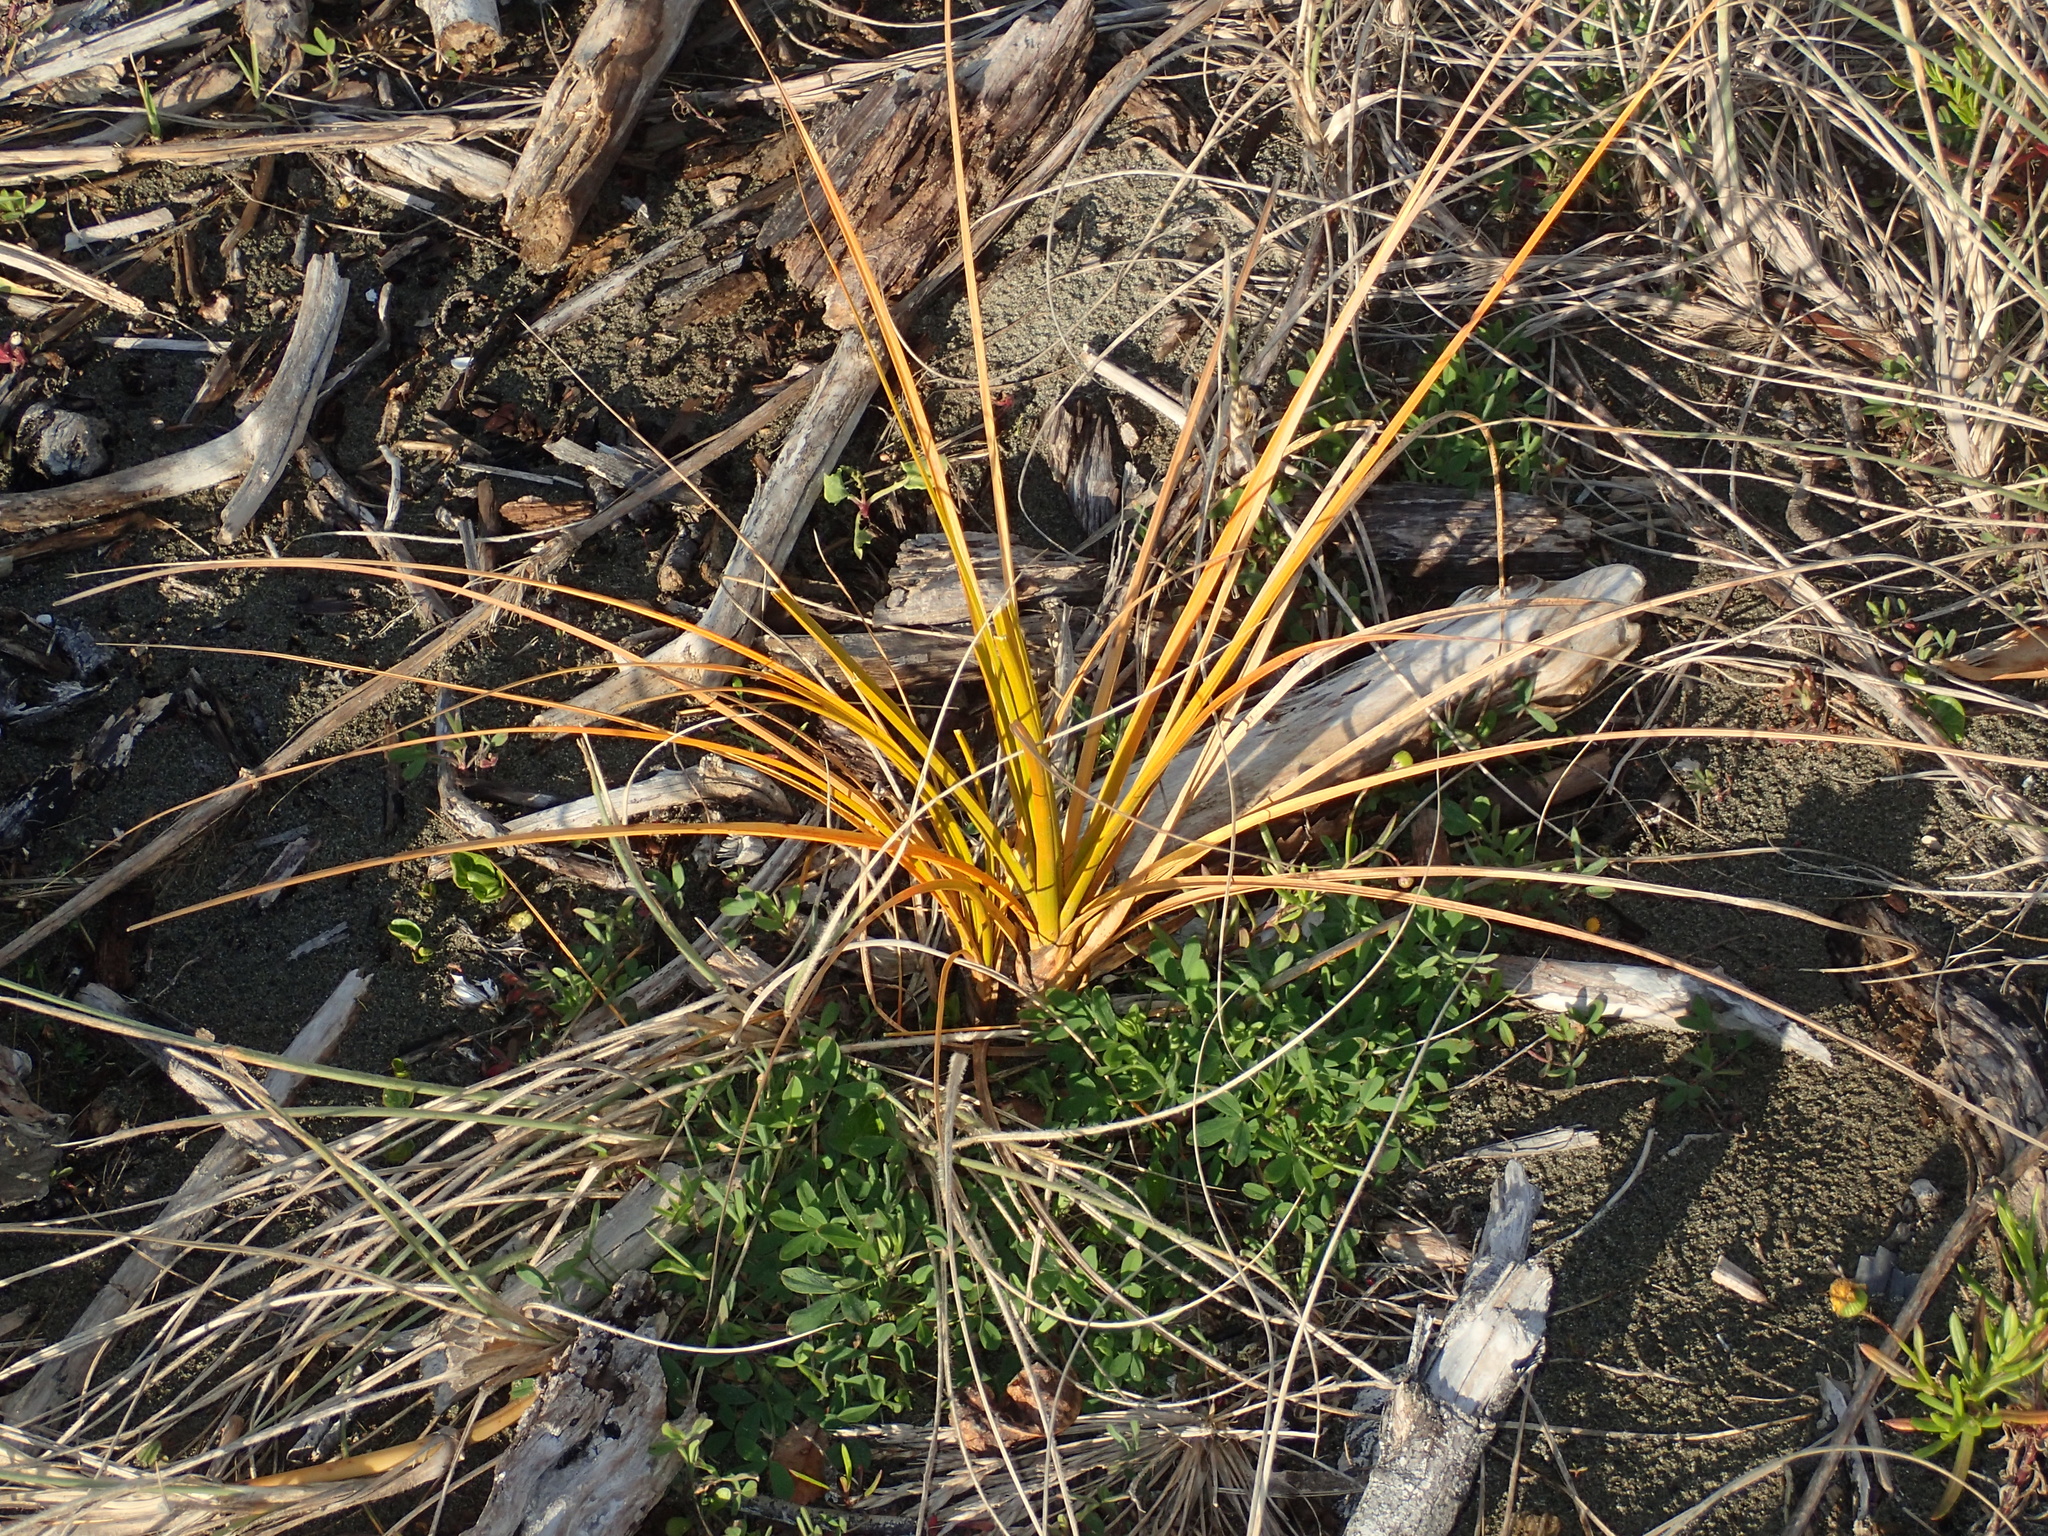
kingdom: Plantae
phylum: Tracheophyta
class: Liliopsida
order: Poales
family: Cyperaceae
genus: Ficinia
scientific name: Ficinia spiralis
